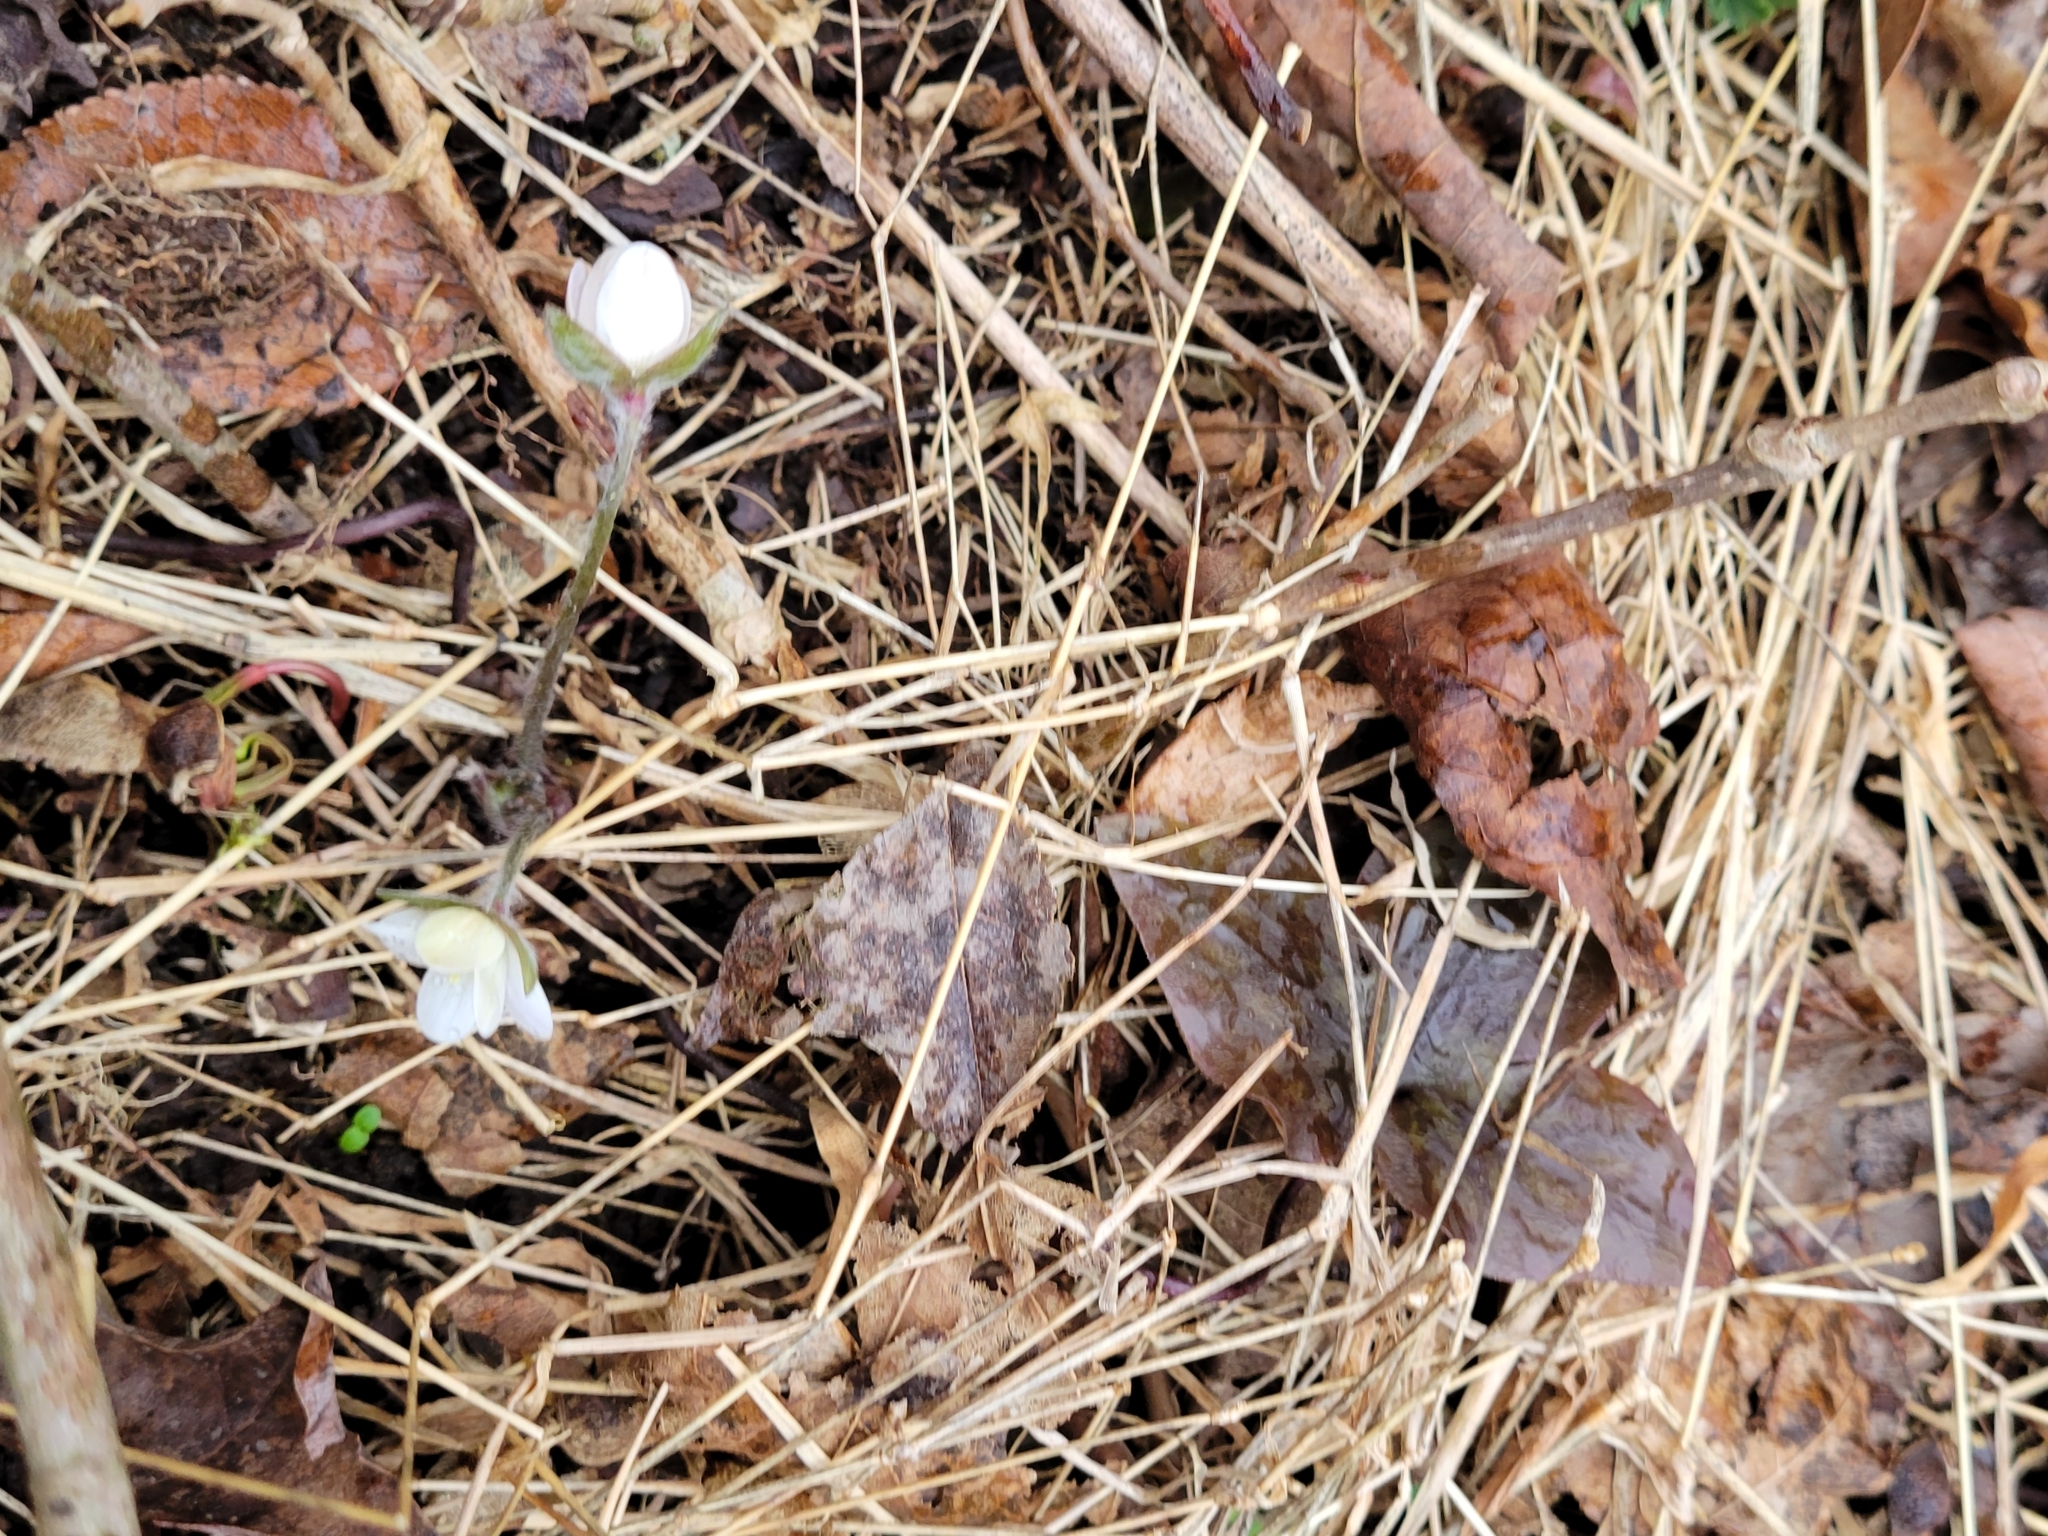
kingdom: Plantae
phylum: Tracheophyta
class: Magnoliopsida
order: Ranunculales
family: Ranunculaceae
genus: Hepatica
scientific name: Hepatica acutiloba
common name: Sharp-lobed hepatica
